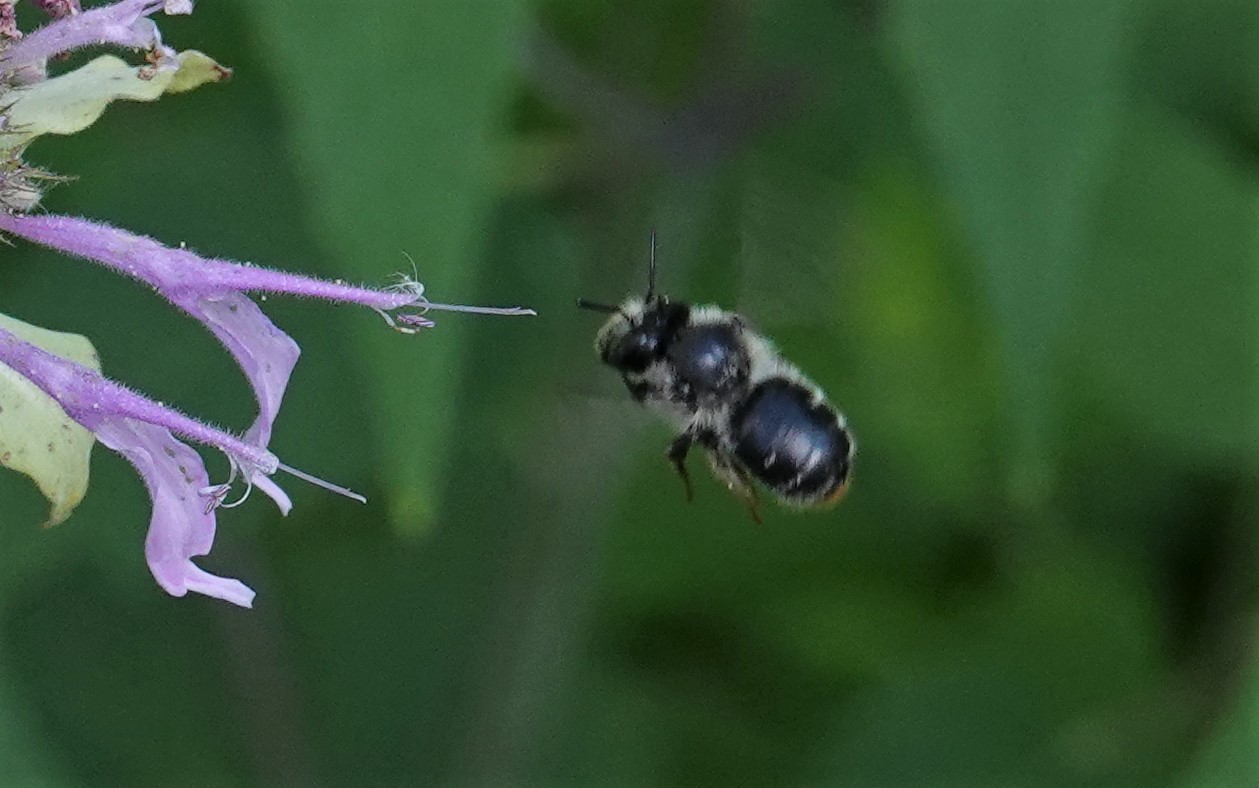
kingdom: Animalia
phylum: Arthropoda
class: Insecta
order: Hymenoptera
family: Apidae
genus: Anthophora
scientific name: Anthophora terminalis
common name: Orange-tipped wood-digger bee
